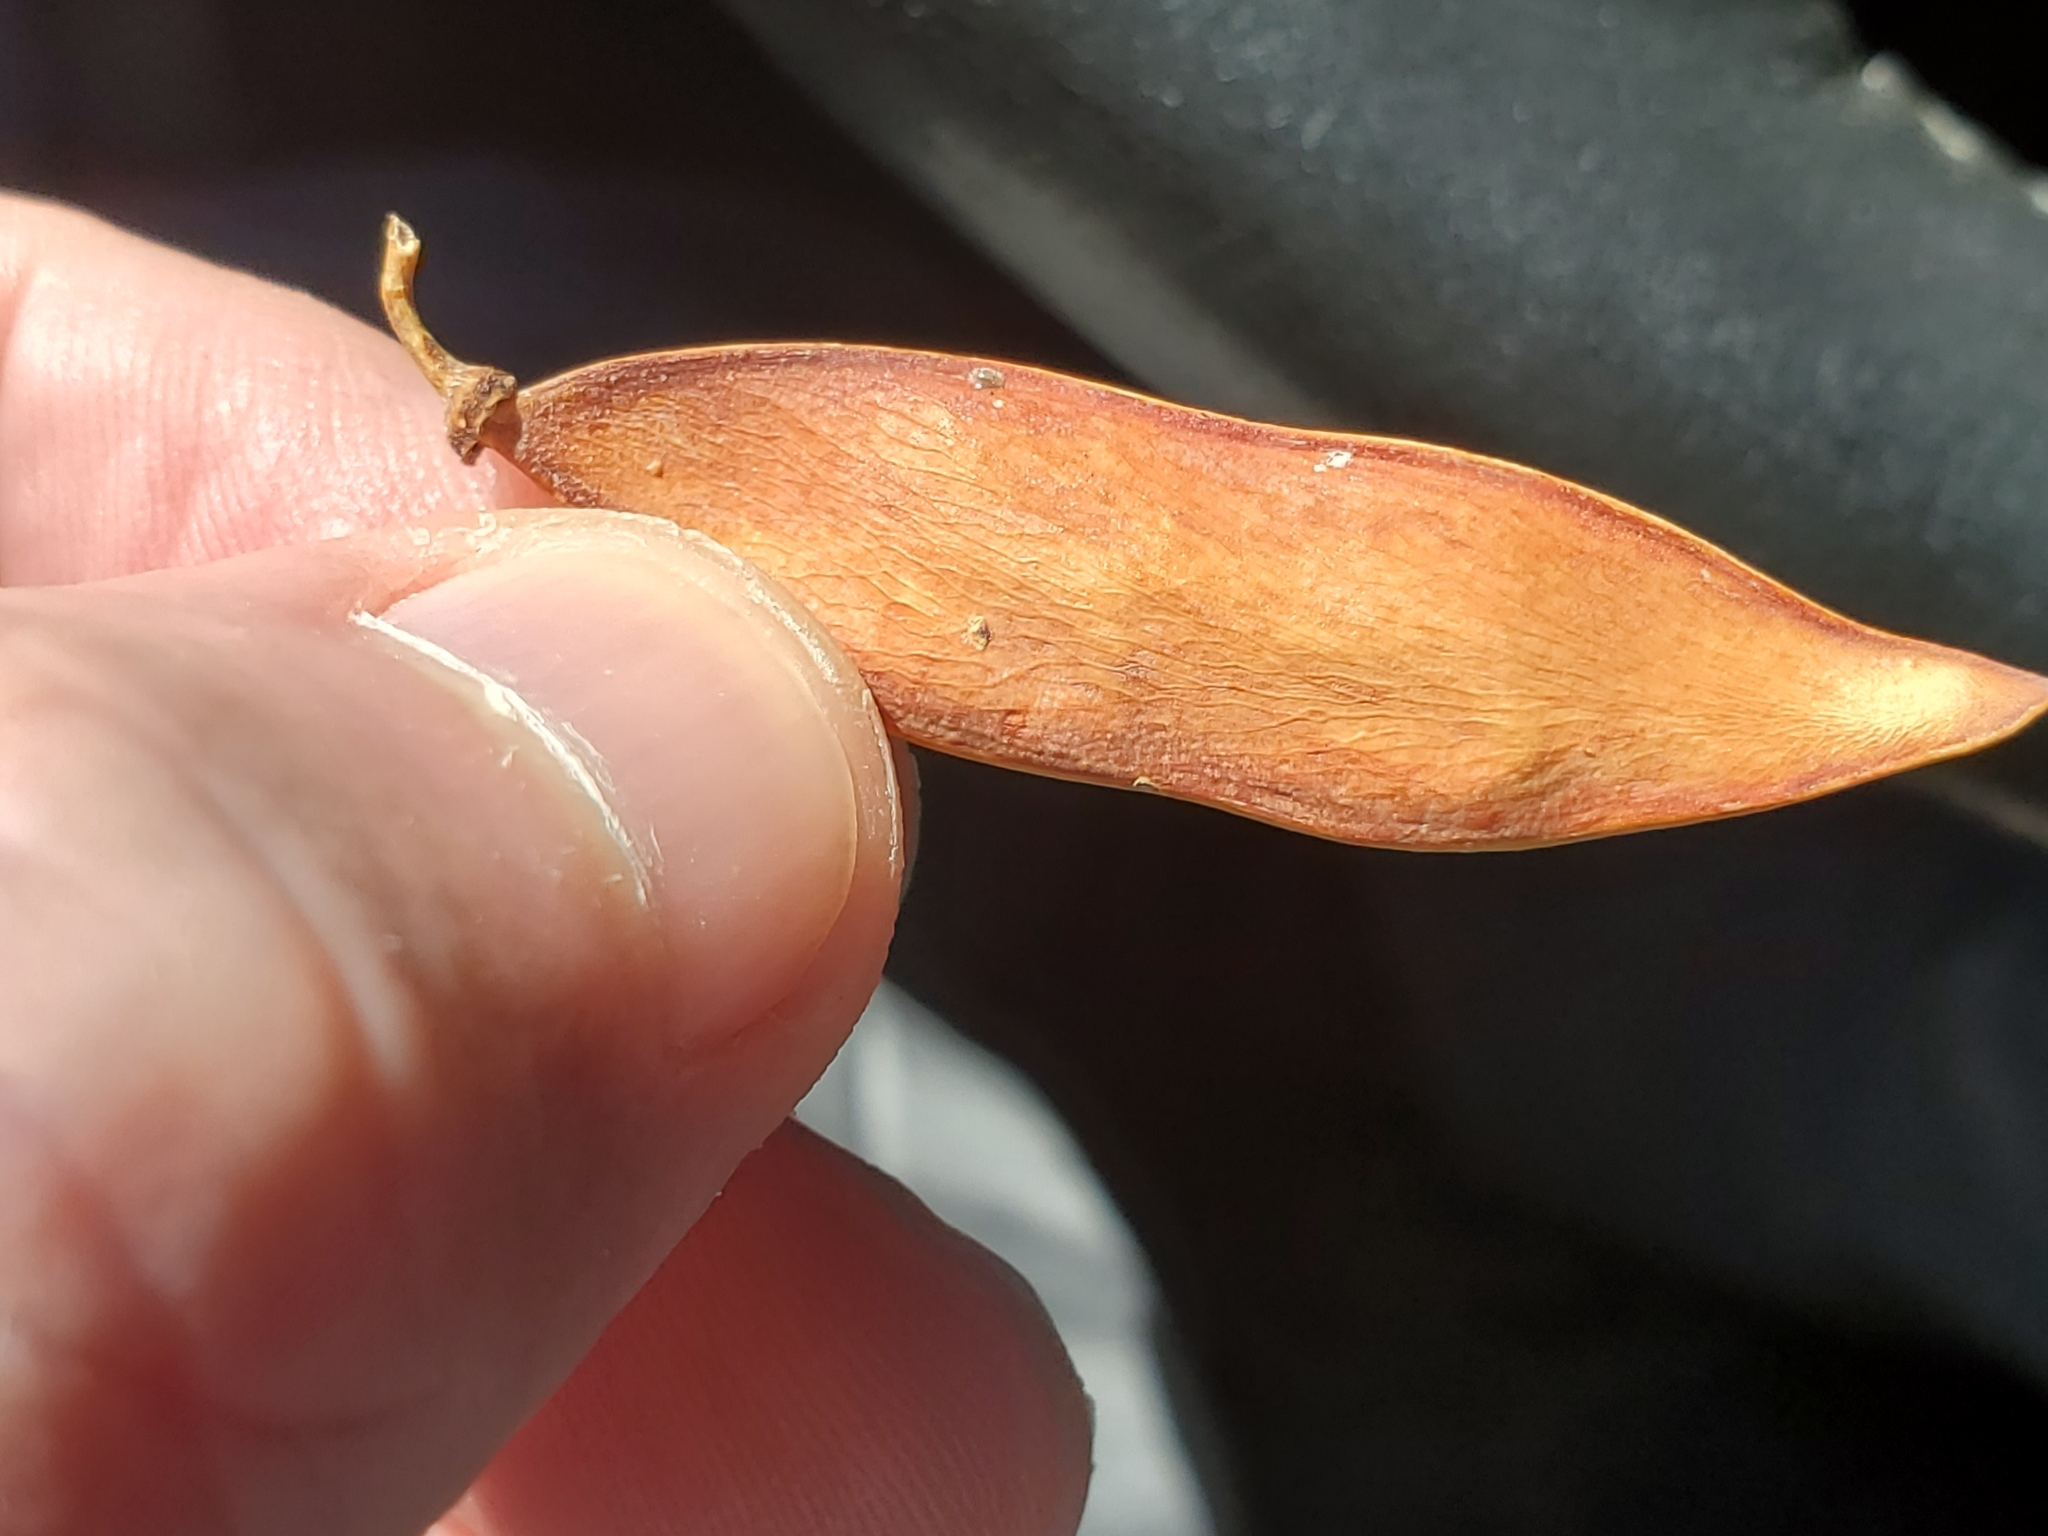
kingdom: Plantae
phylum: Tracheophyta
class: Magnoliopsida
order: Fabales
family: Fabaceae
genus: Parkinsonia
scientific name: Parkinsonia florida
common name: Blue paloverde
